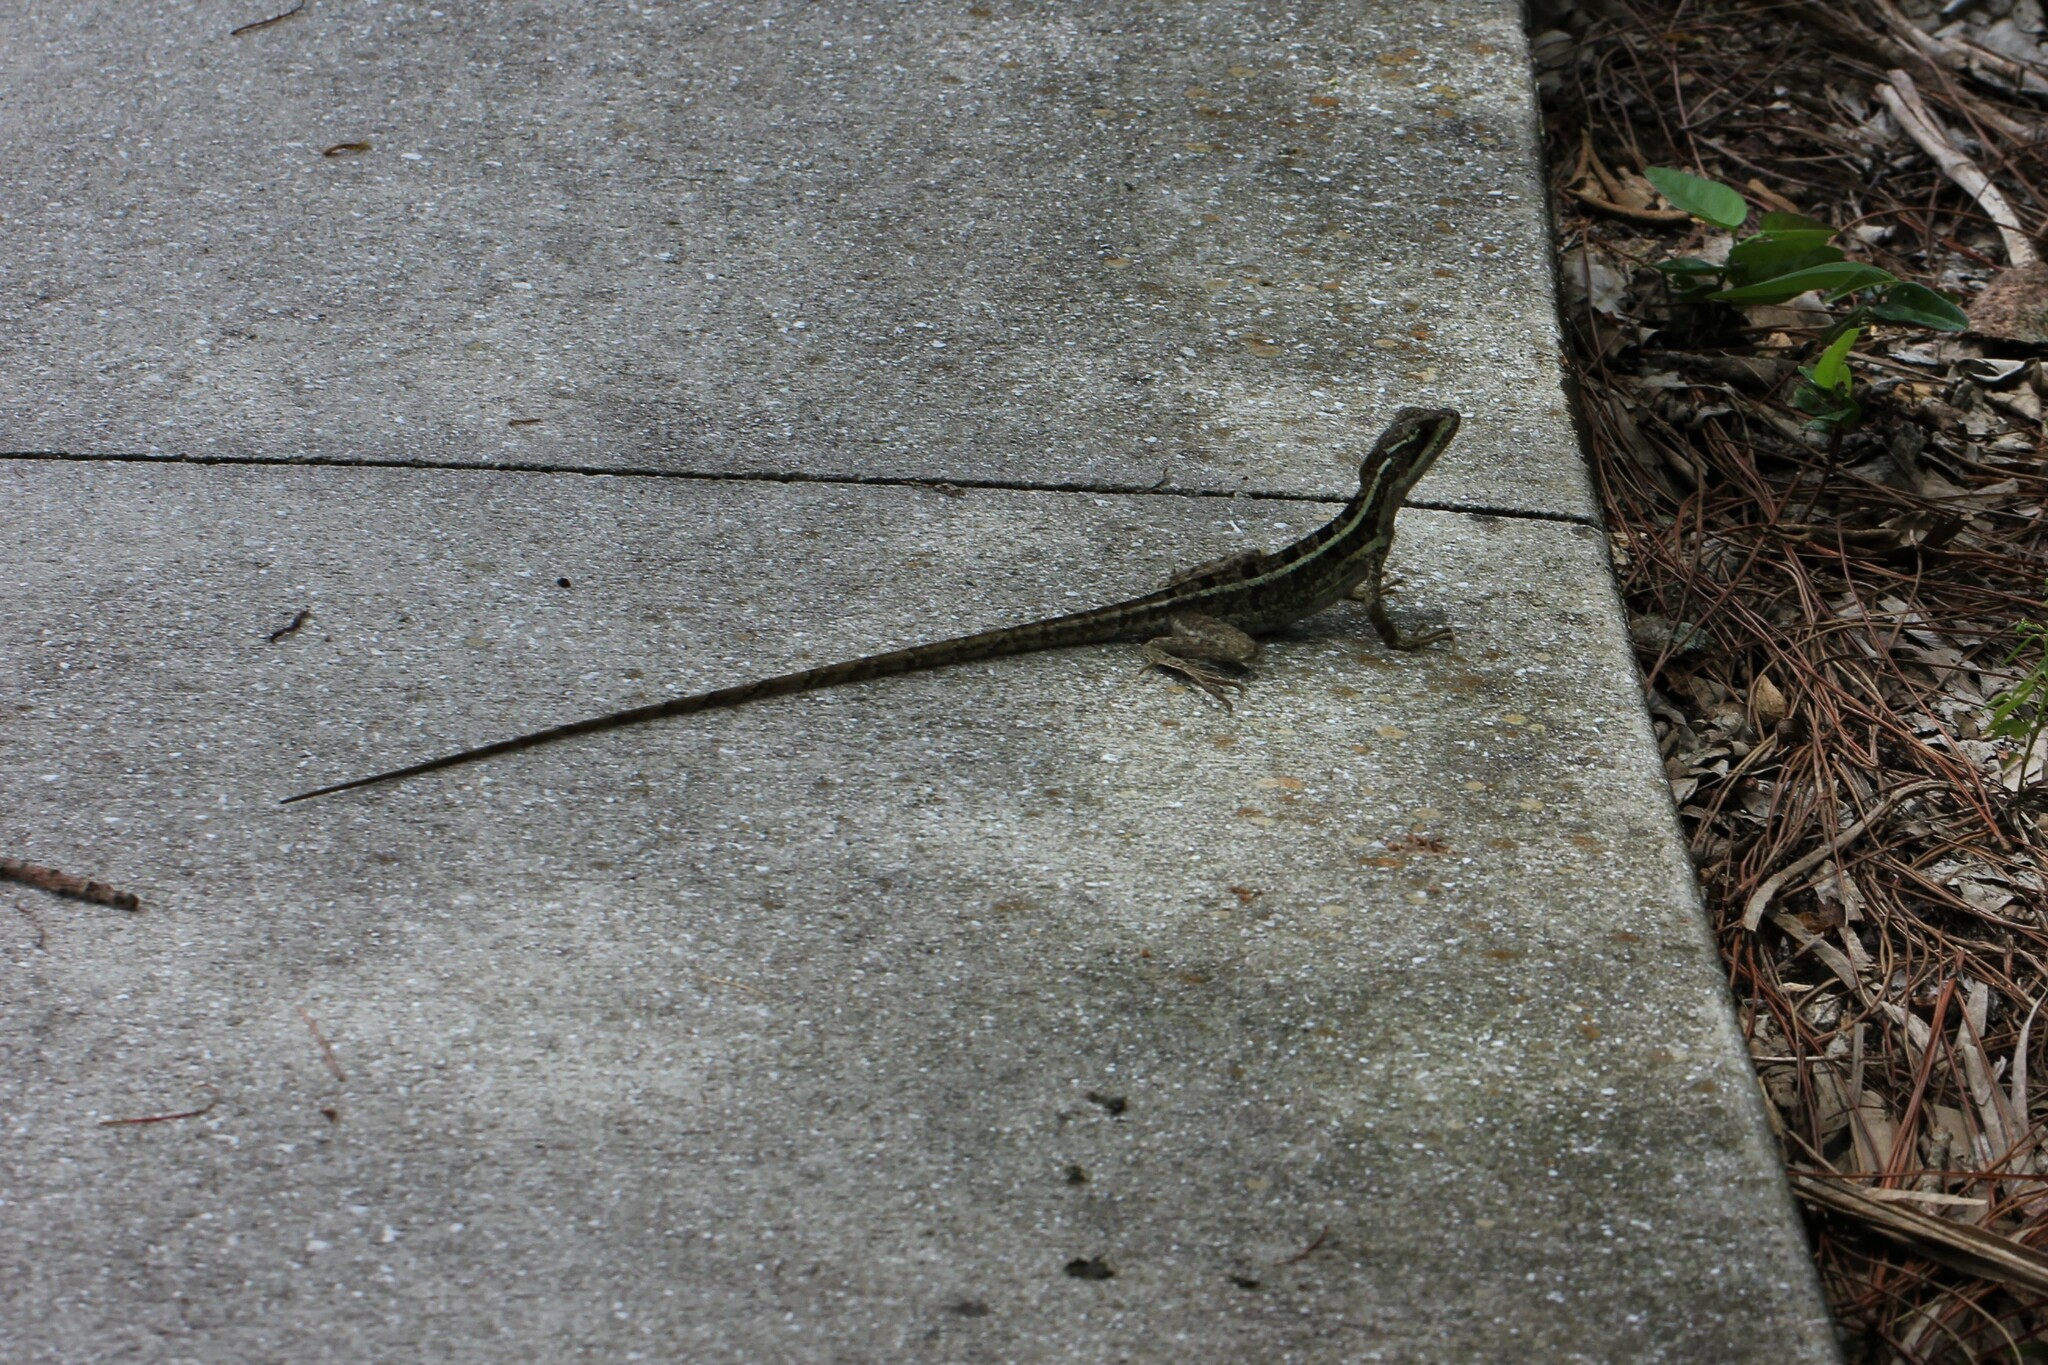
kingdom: Animalia
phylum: Chordata
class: Squamata
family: Corytophanidae
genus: Basiliscus
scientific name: Basiliscus vittatus
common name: Brown basilisk
